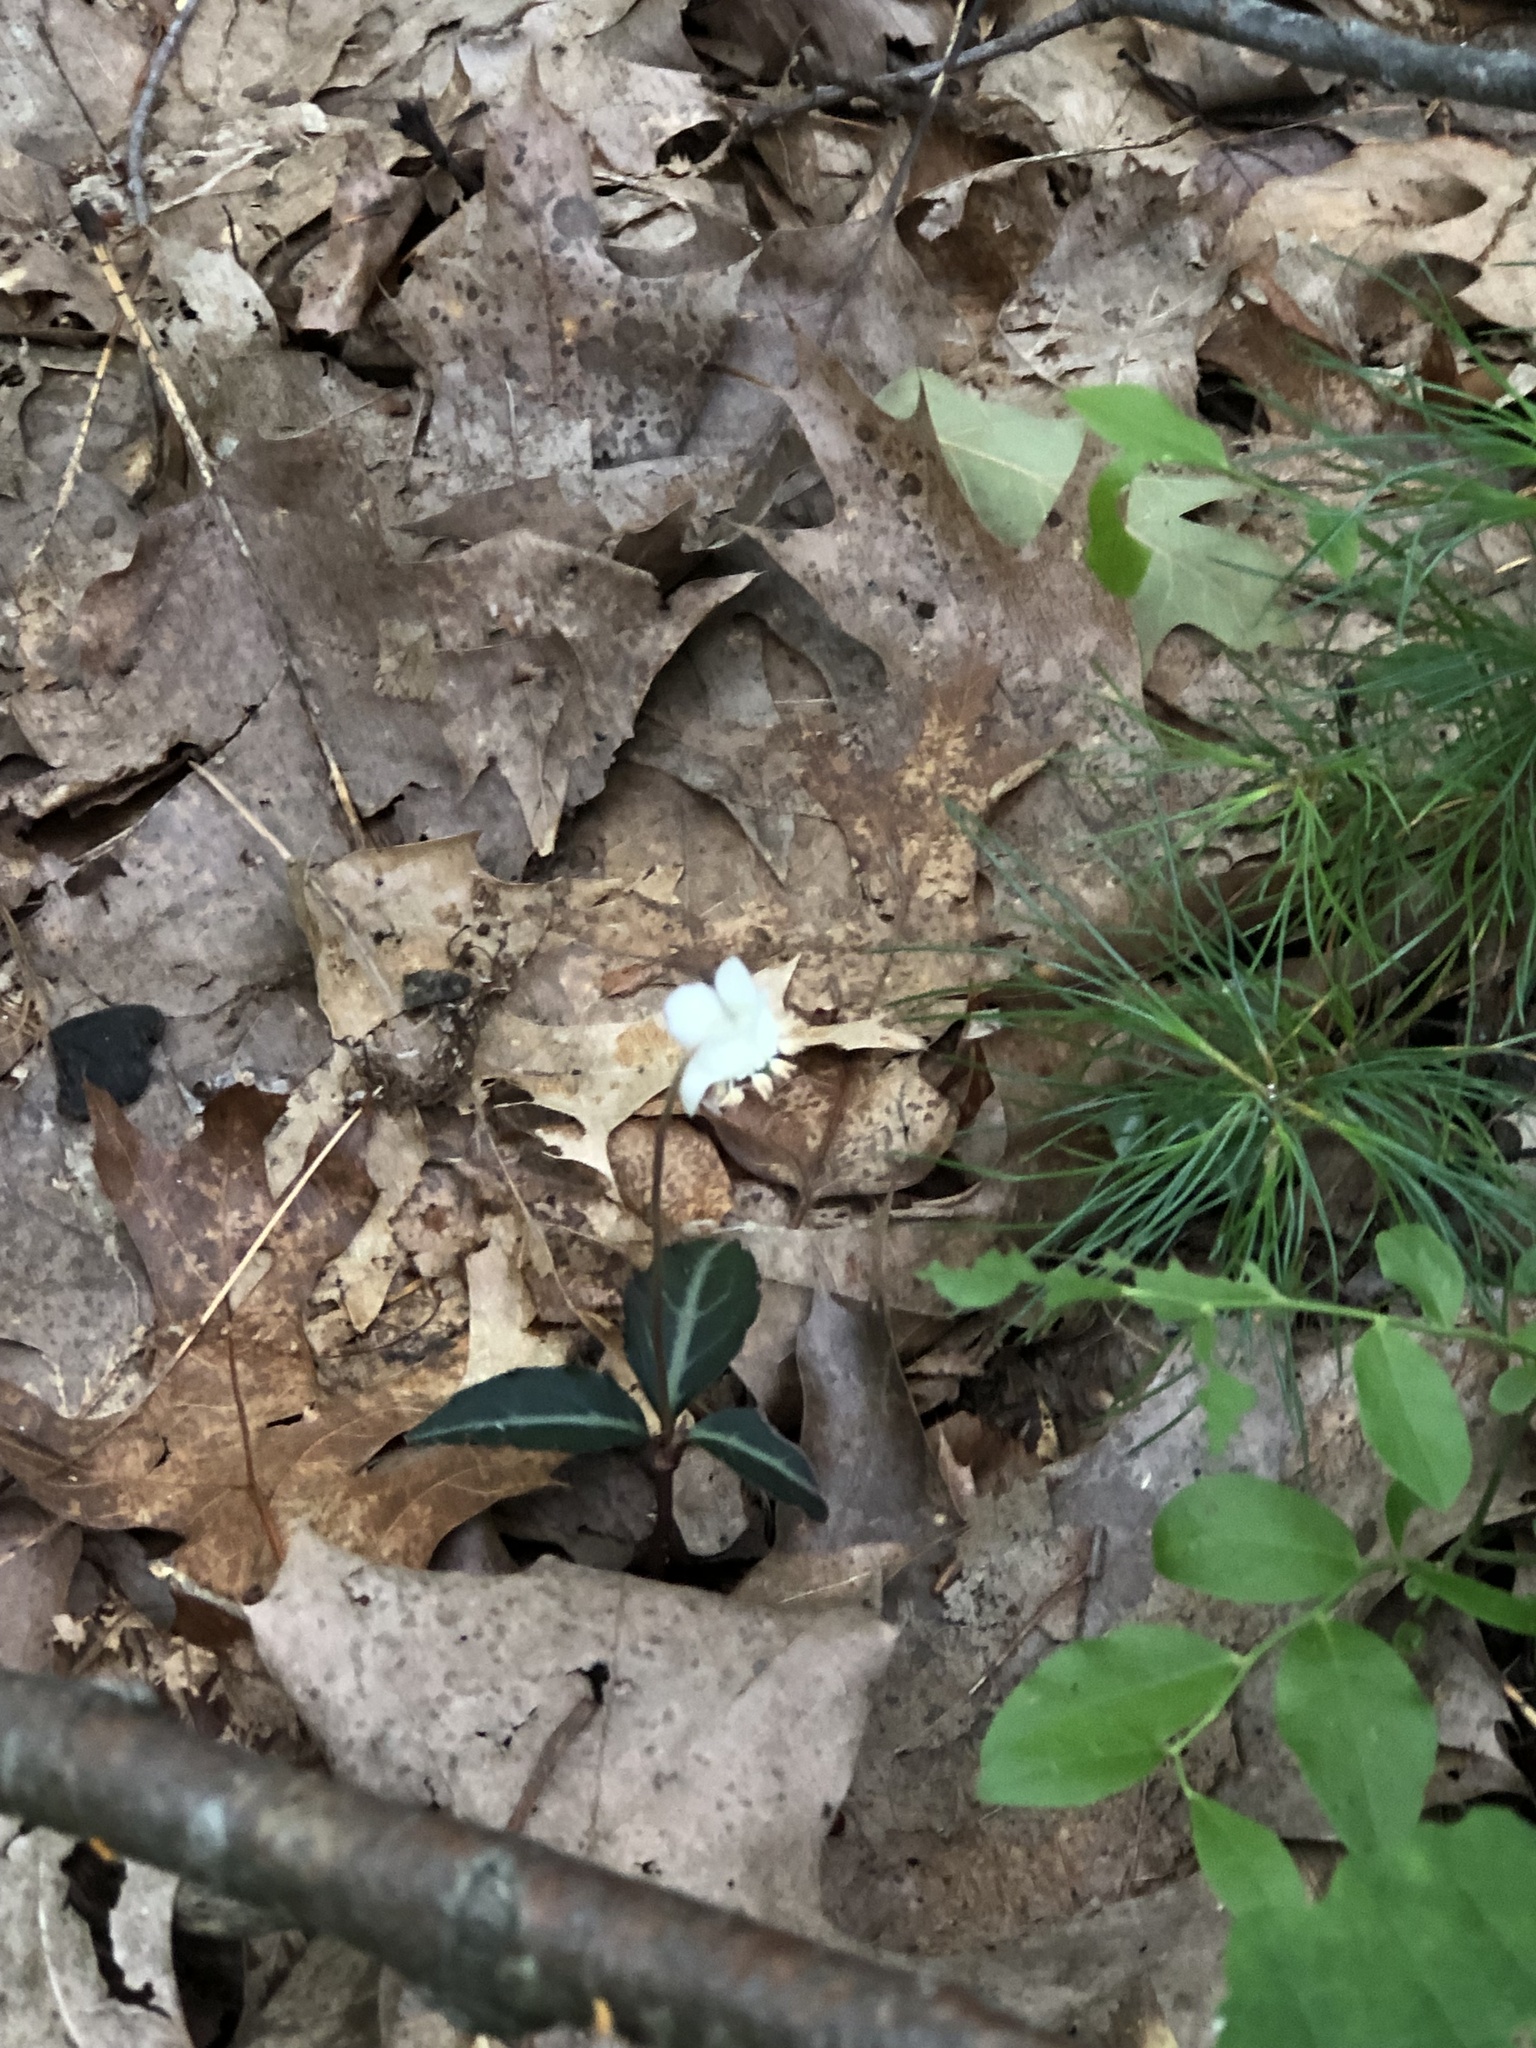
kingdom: Plantae
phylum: Tracheophyta
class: Magnoliopsida
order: Ericales
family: Ericaceae
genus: Chimaphila
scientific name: Chimaphila maculata
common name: Spotted pipsissewa
